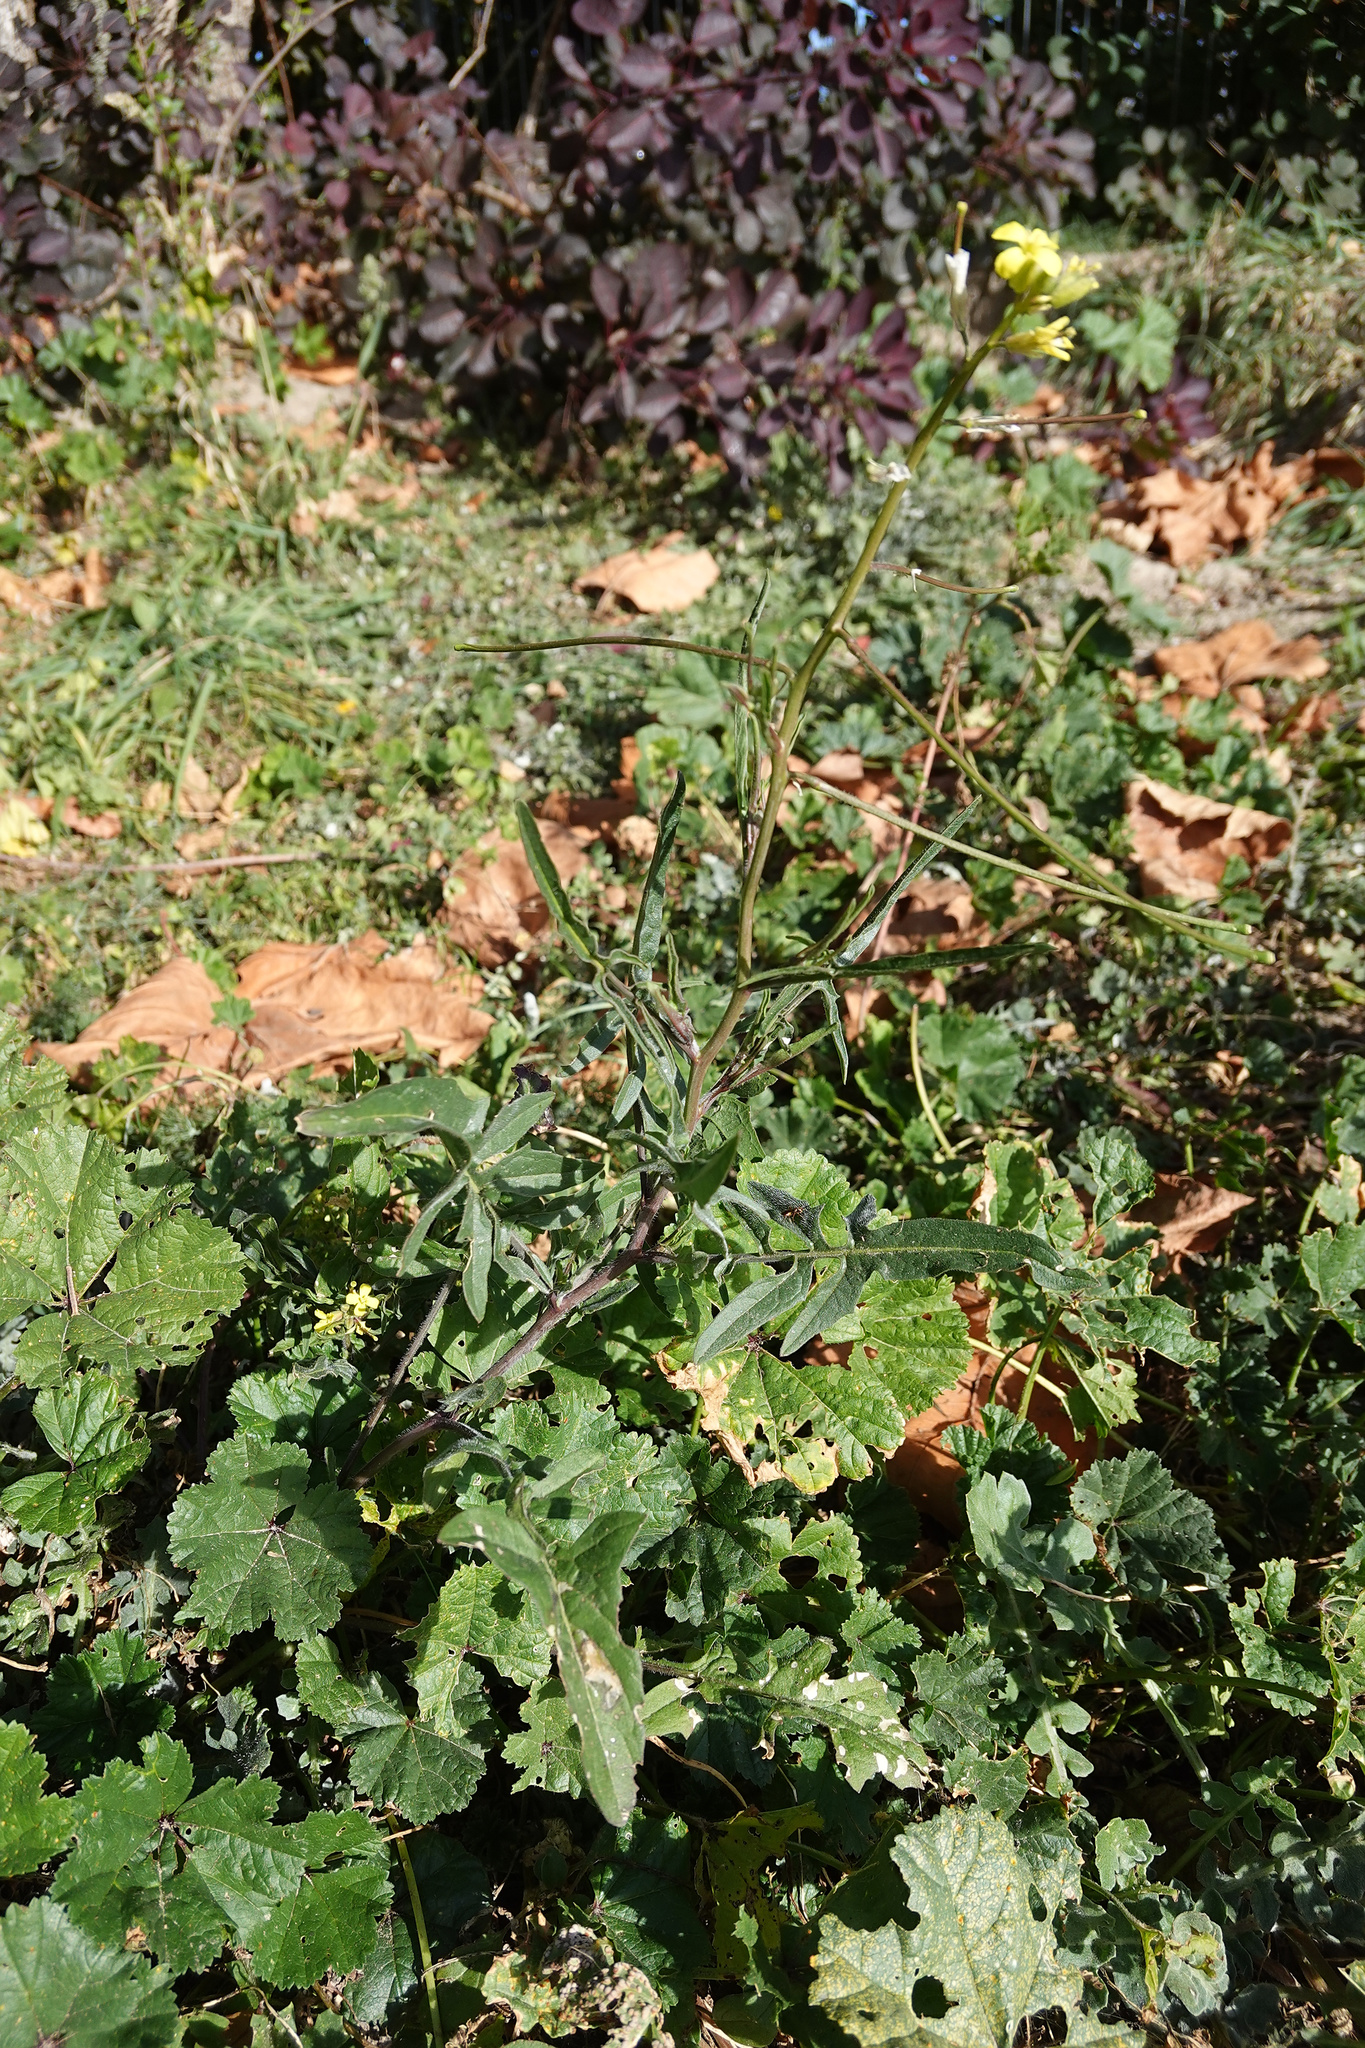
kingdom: Plantae
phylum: Tracheophyta
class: Magnoliopsida
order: Brassicales
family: Brassicaceae
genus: Sisymbrium
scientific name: Sisymbrium officinale
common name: Hedge mustard
